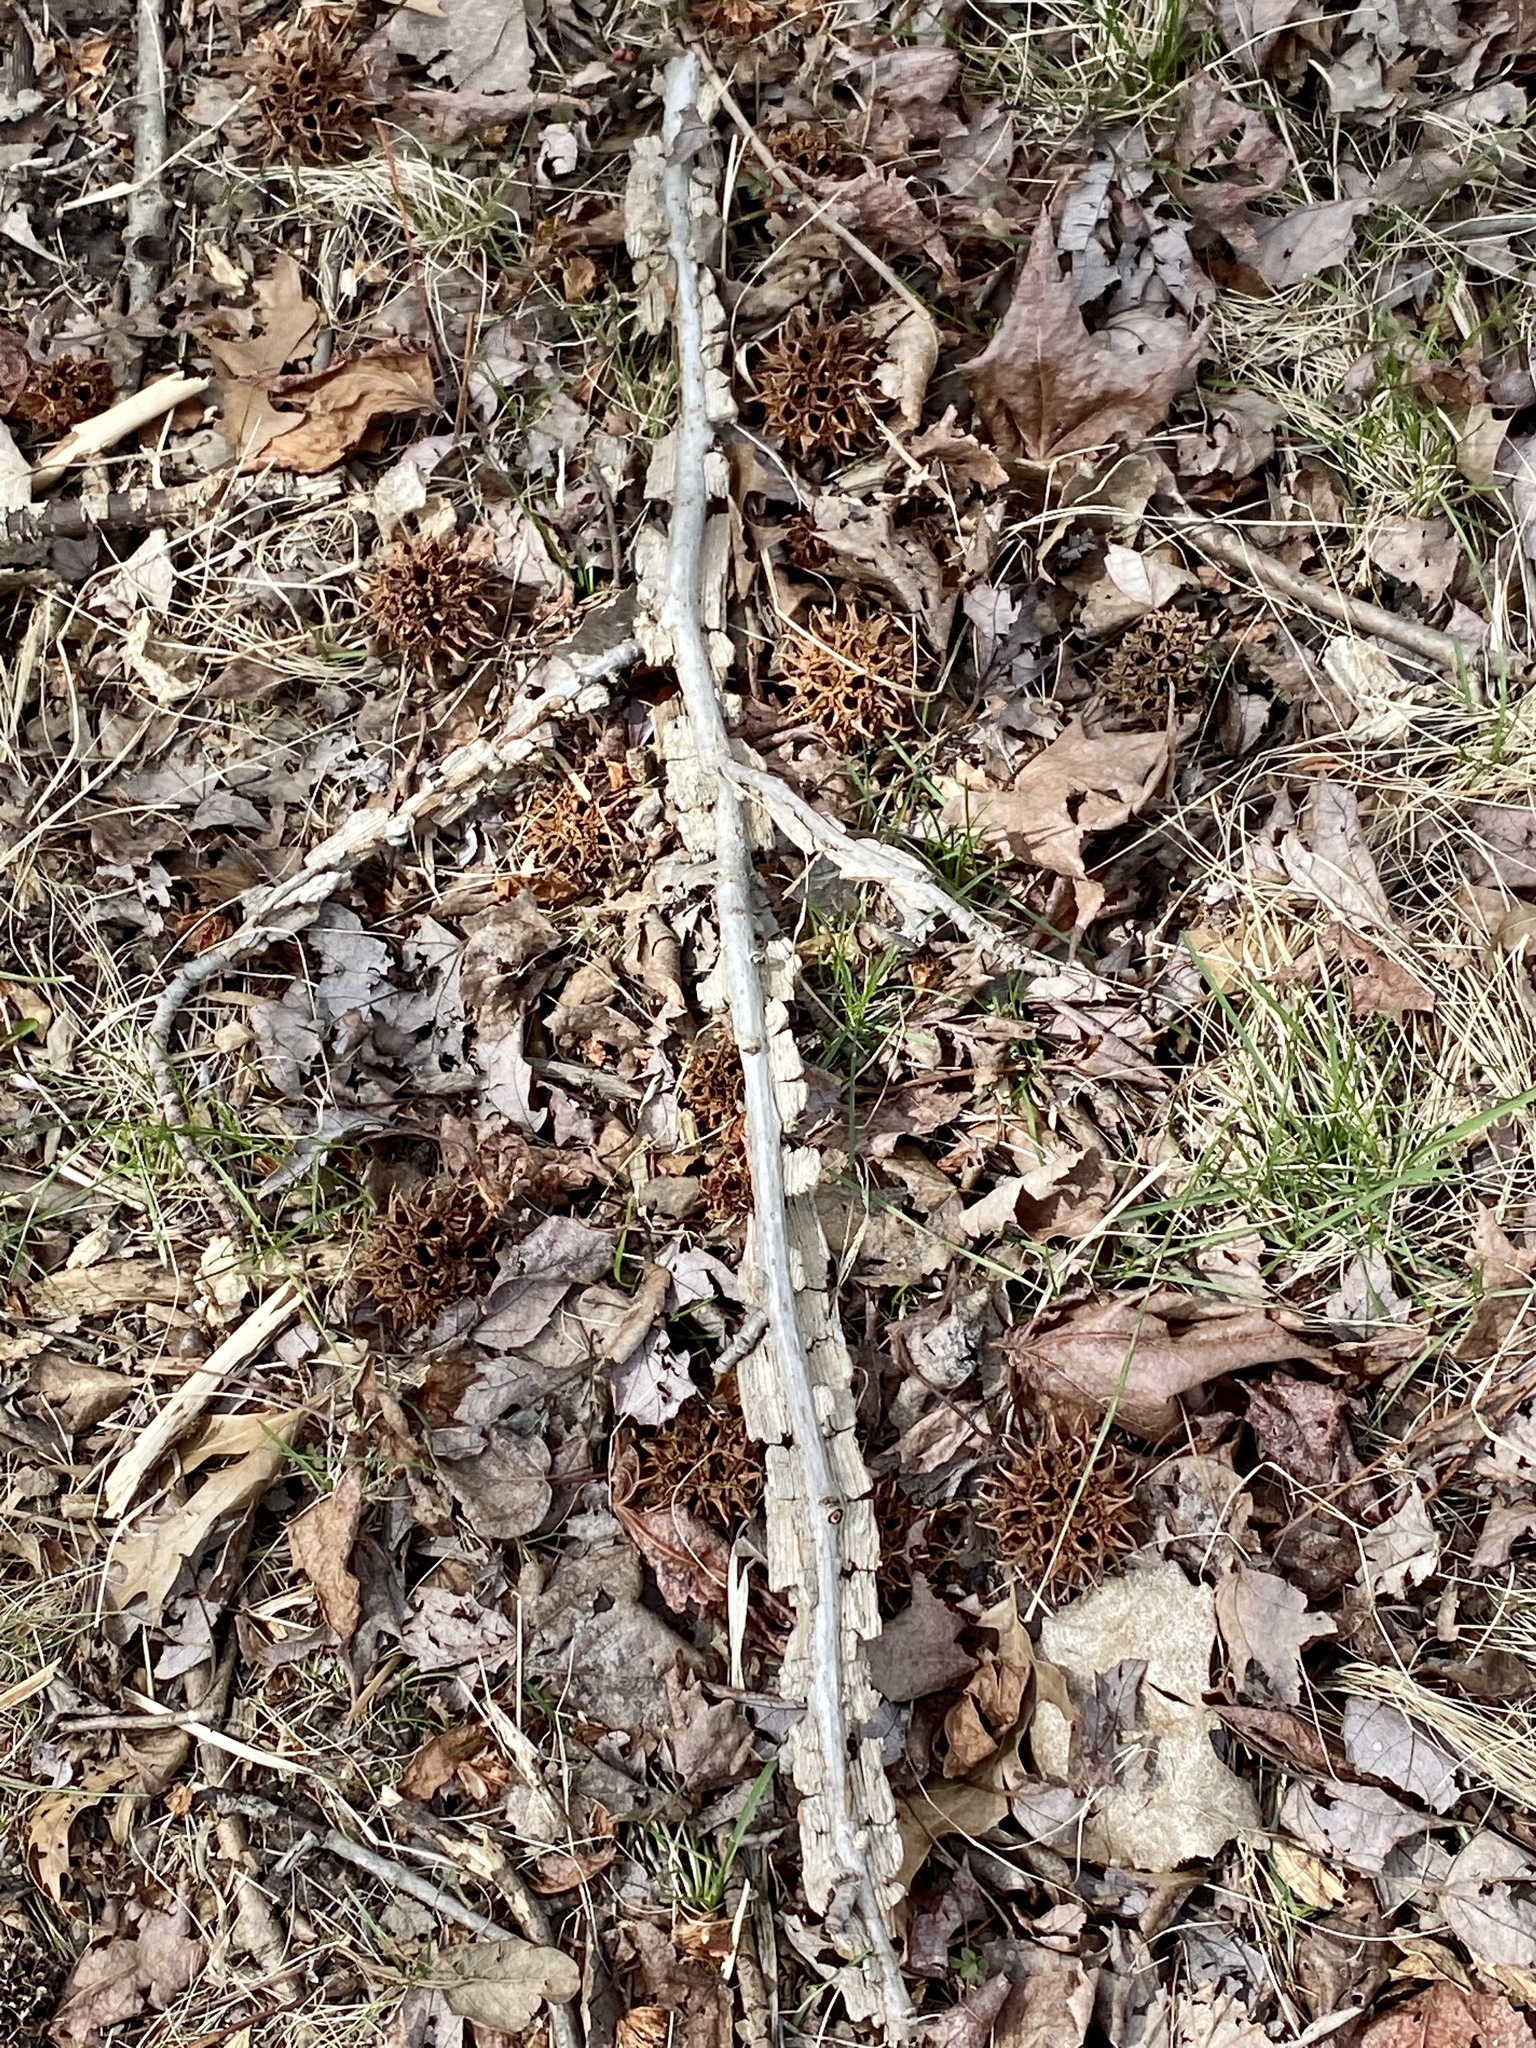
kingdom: Plantae
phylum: Tracheophyta
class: Magnoliopsida
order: Saxifragales
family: Altingiaceae
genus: Liquidambar
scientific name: Liquidambar styraciflua
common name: Sweet gum
